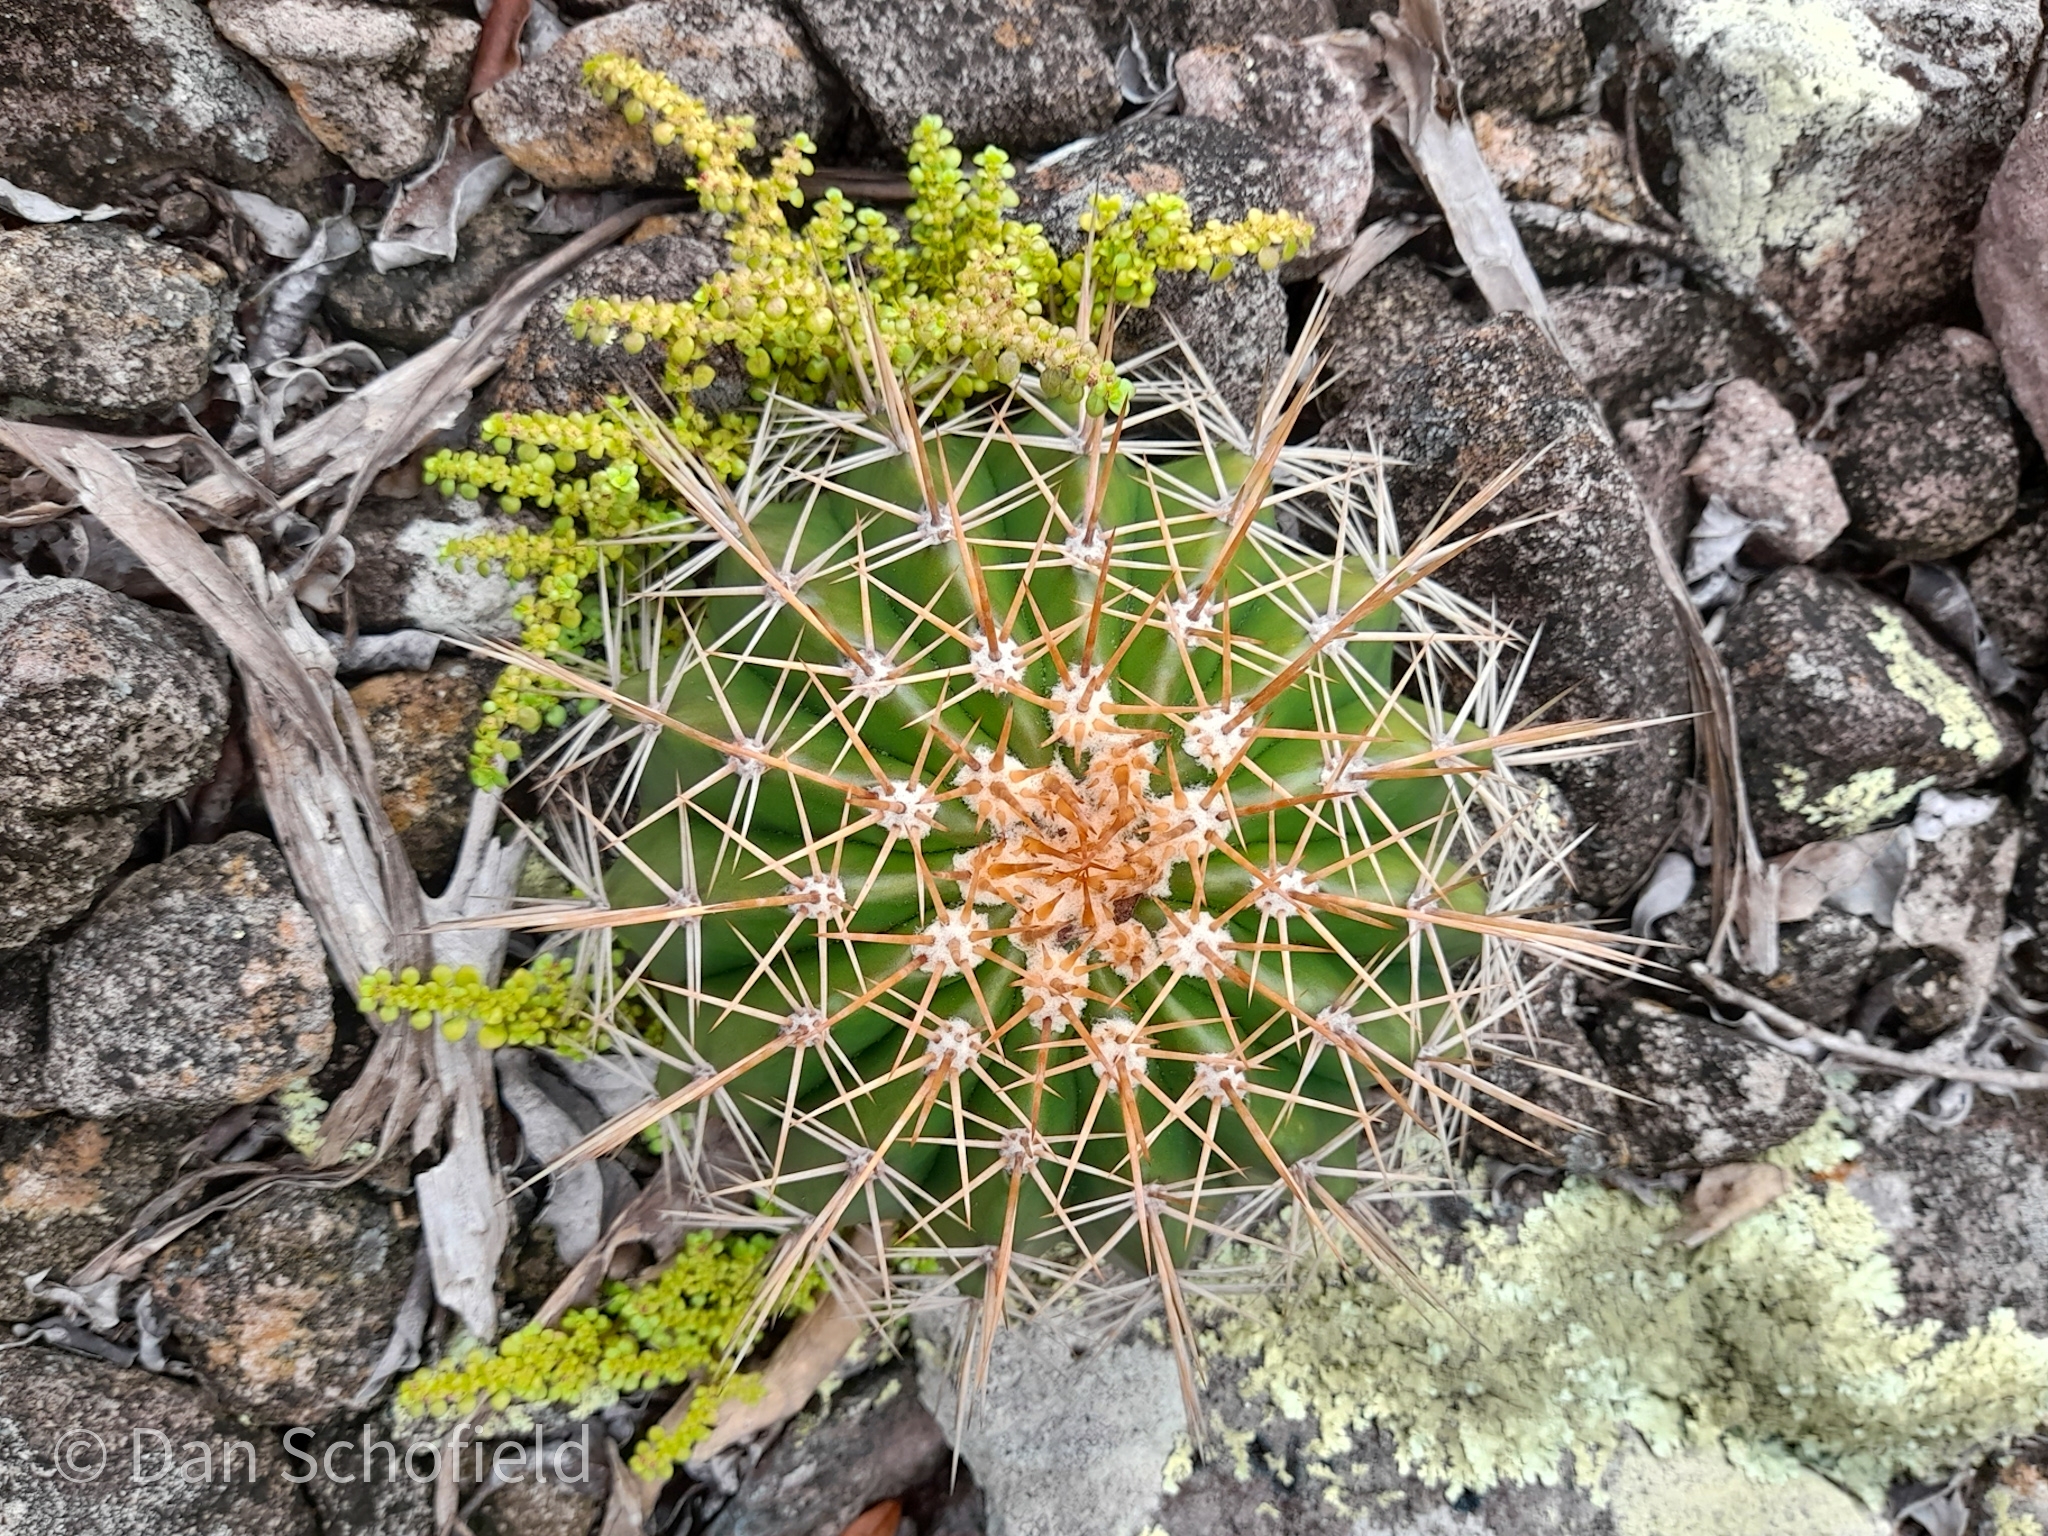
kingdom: Plantae
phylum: Tracheophyta
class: Magnoliopsida
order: Caryophyllales
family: Cactaceae
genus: Melocactus
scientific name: Melocactus intortus
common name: Barrel cactus
